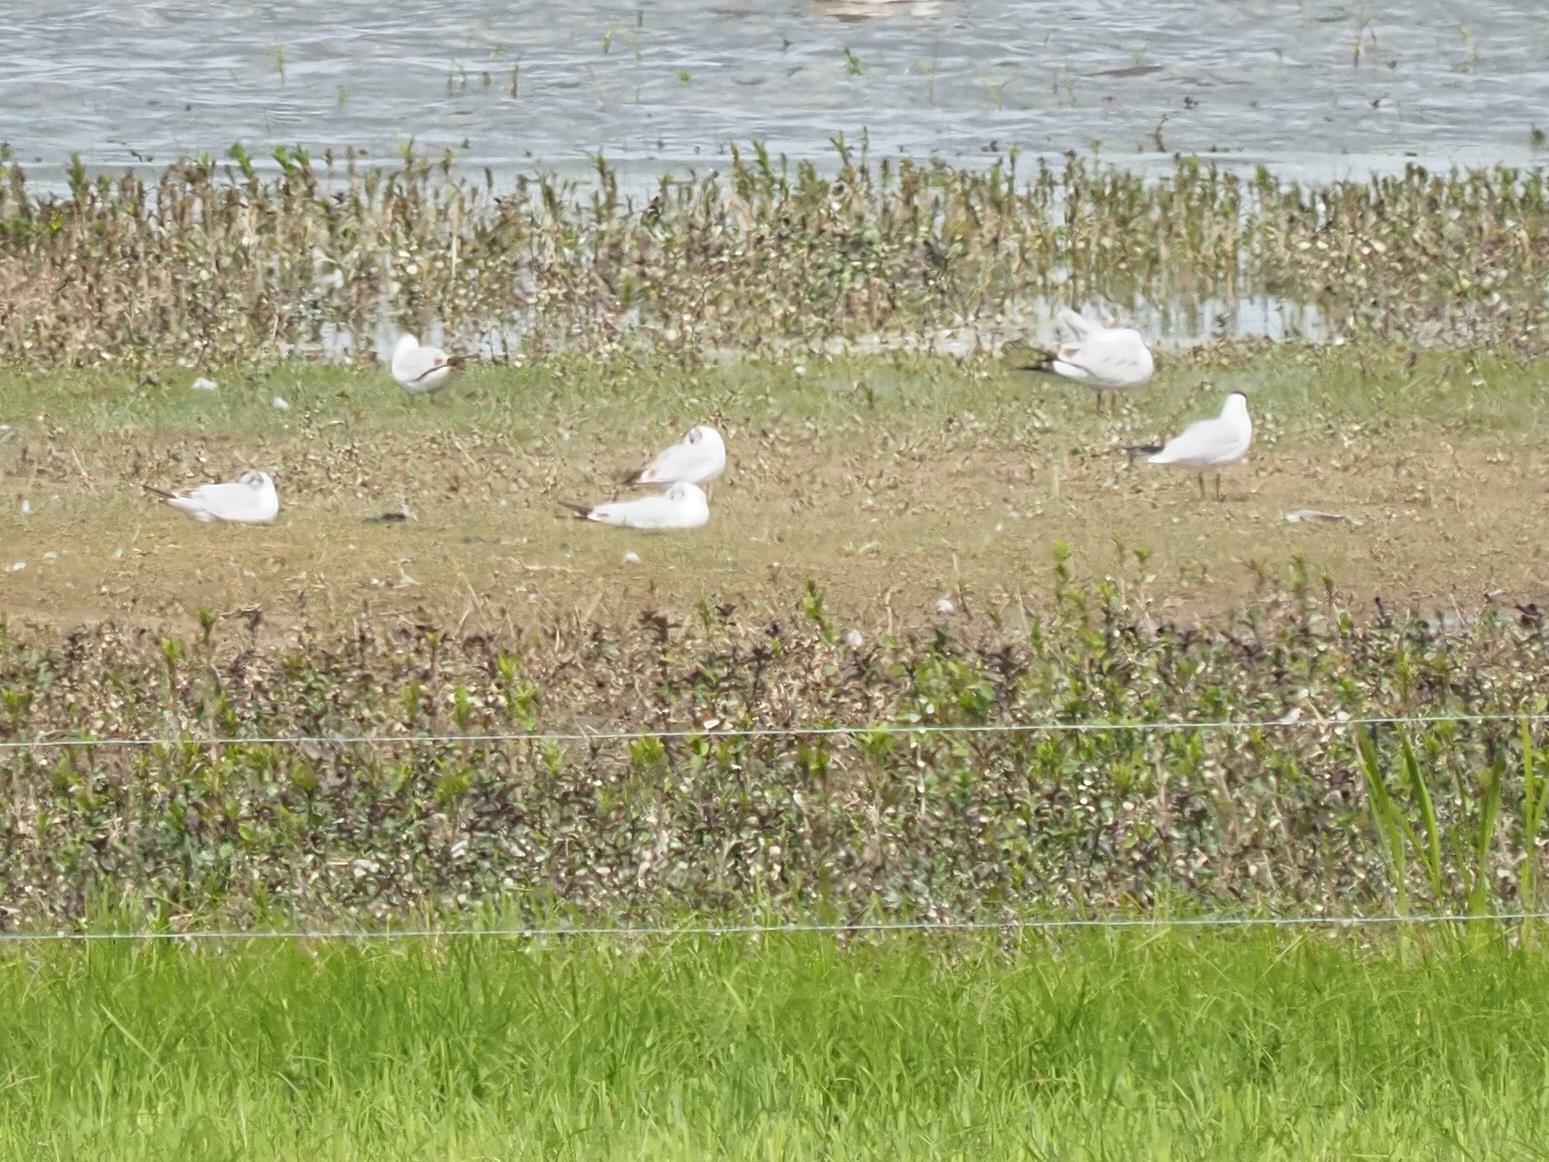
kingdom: Animalia
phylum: Chordata
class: Aves
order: Charadriiformes
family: Laridae
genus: Chroicocephalus
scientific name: Chroicocephalus ridibundus
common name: Black-headed gull
